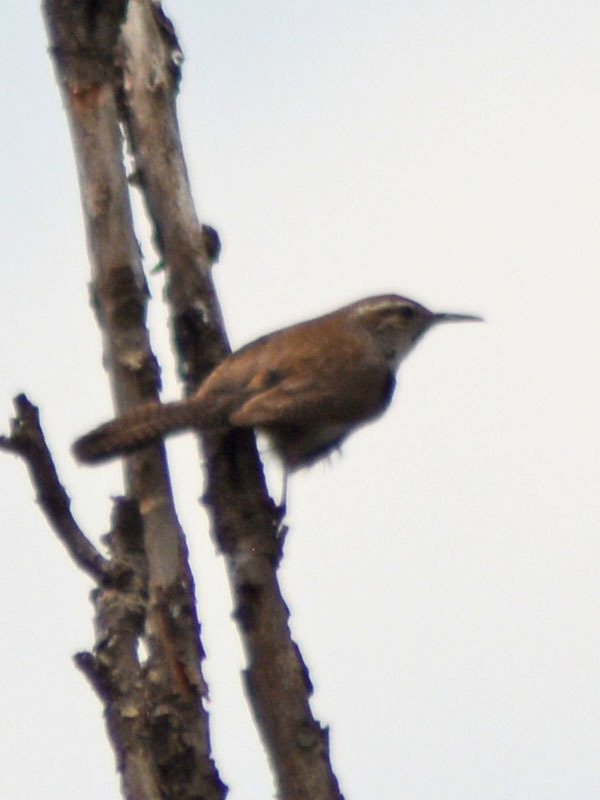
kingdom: Animalia
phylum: Chordata
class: Aves
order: Passeriformes
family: Troglodytidae
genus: Thryomanes
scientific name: Thryomanes bewickii
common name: Bewick's wren
